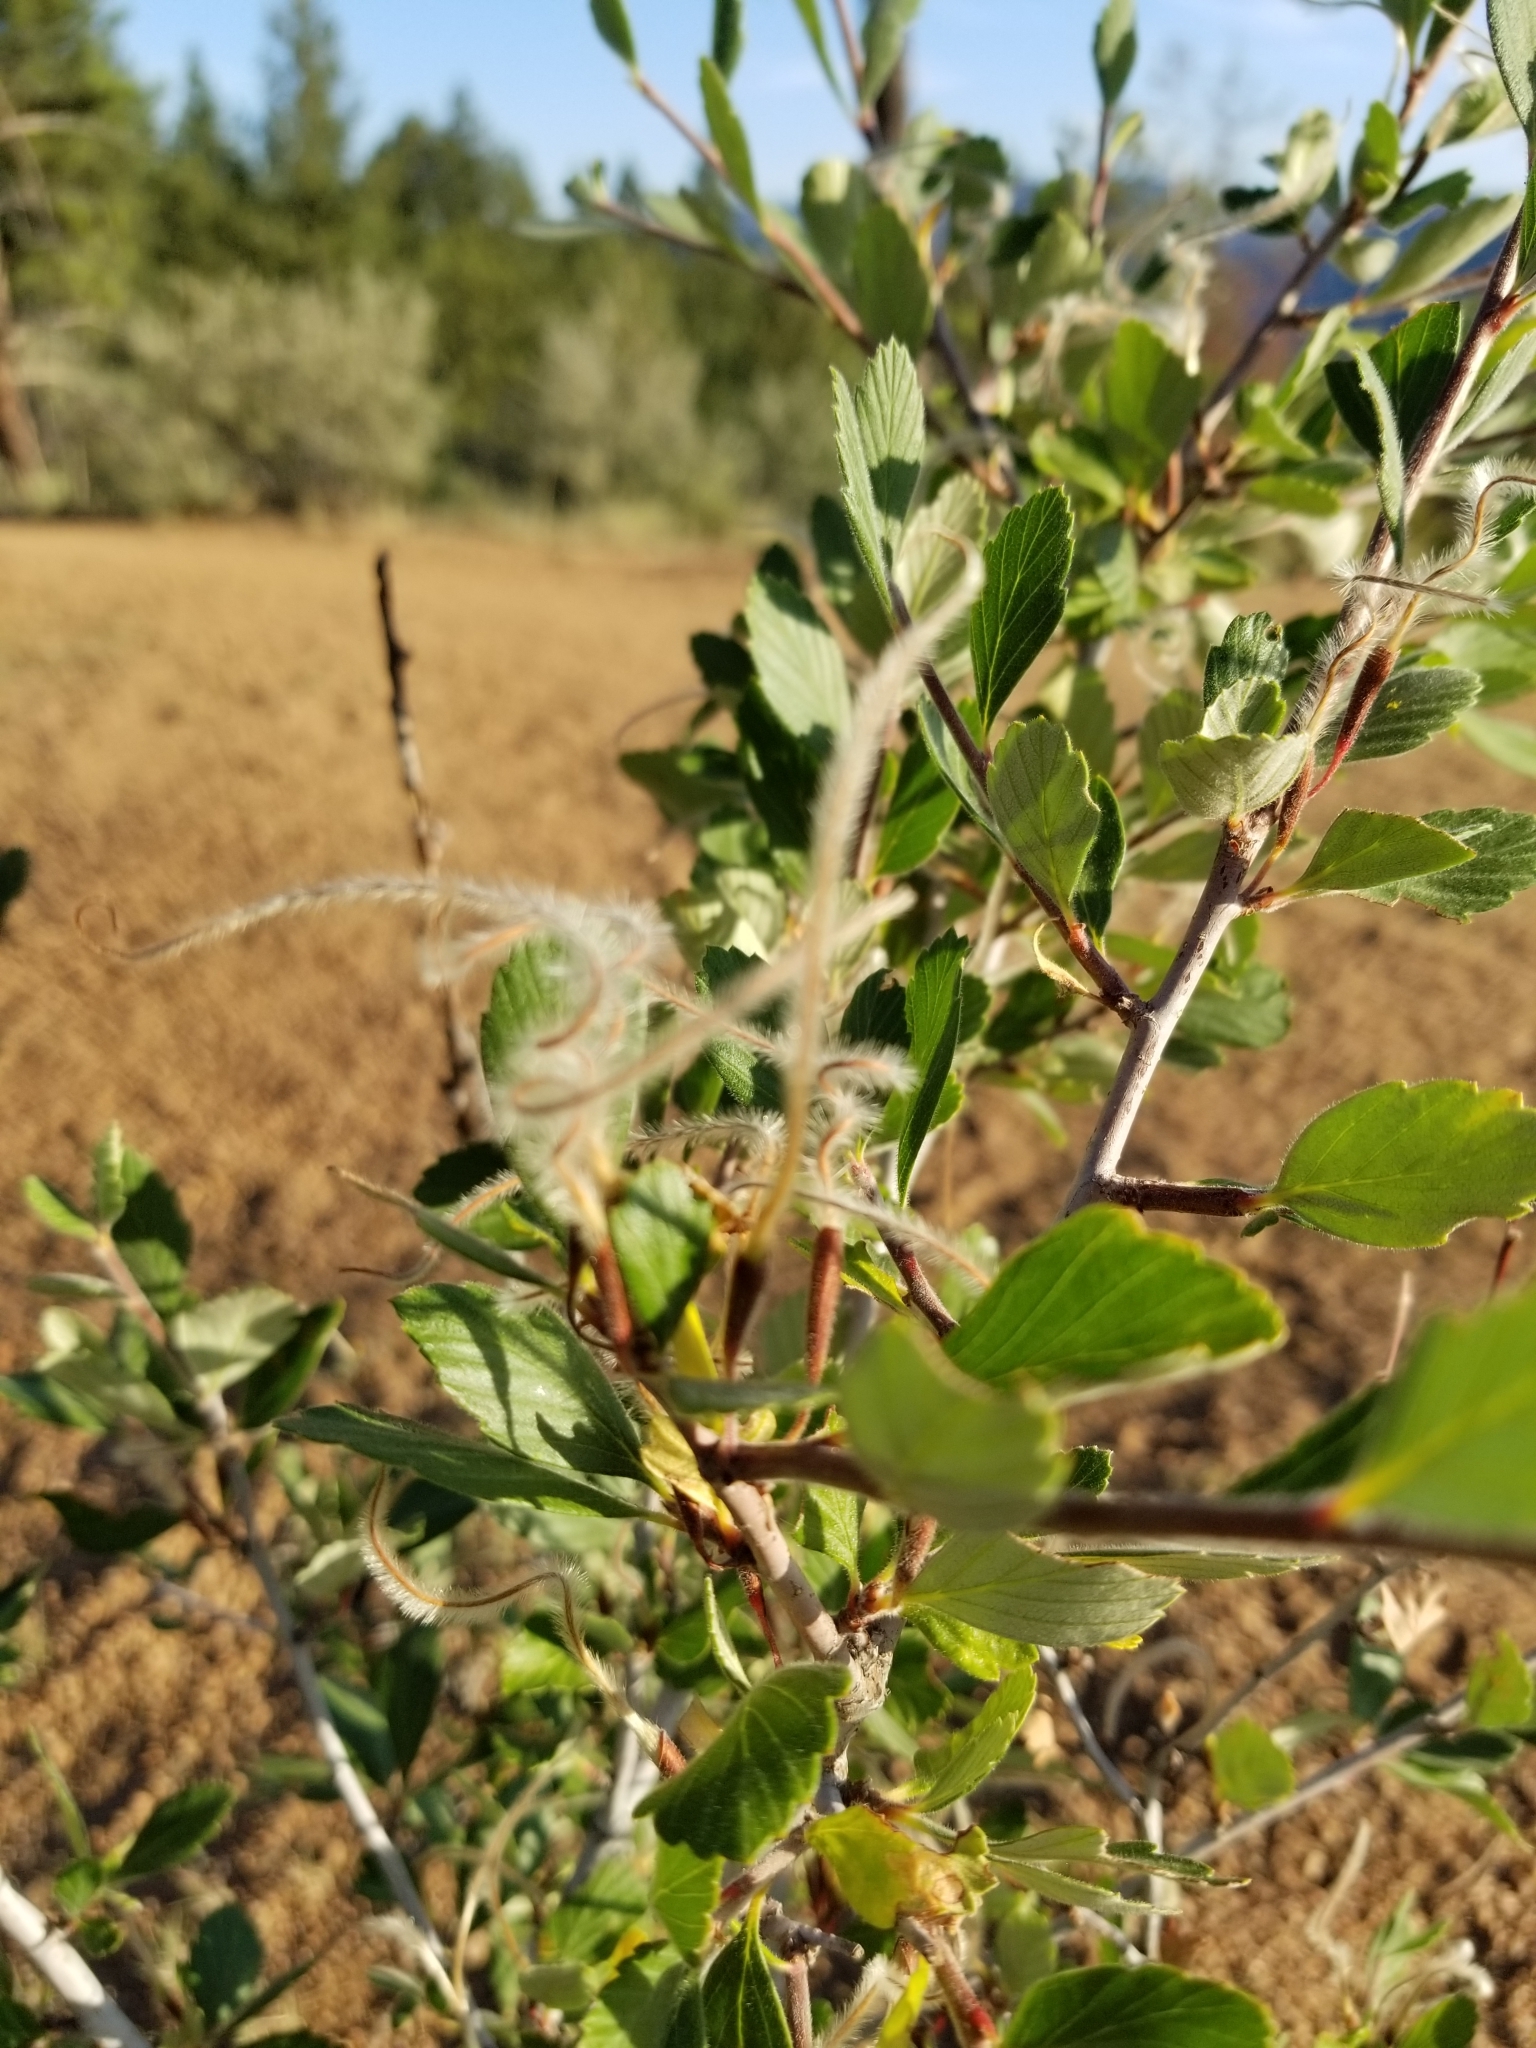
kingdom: Plantae
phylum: Tracheophyta
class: Magnoliopsida
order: Rosales
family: Rosaceae
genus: Cercocarpus
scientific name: Cercocarpus montanus
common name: Alder-leaf cercocarpus
